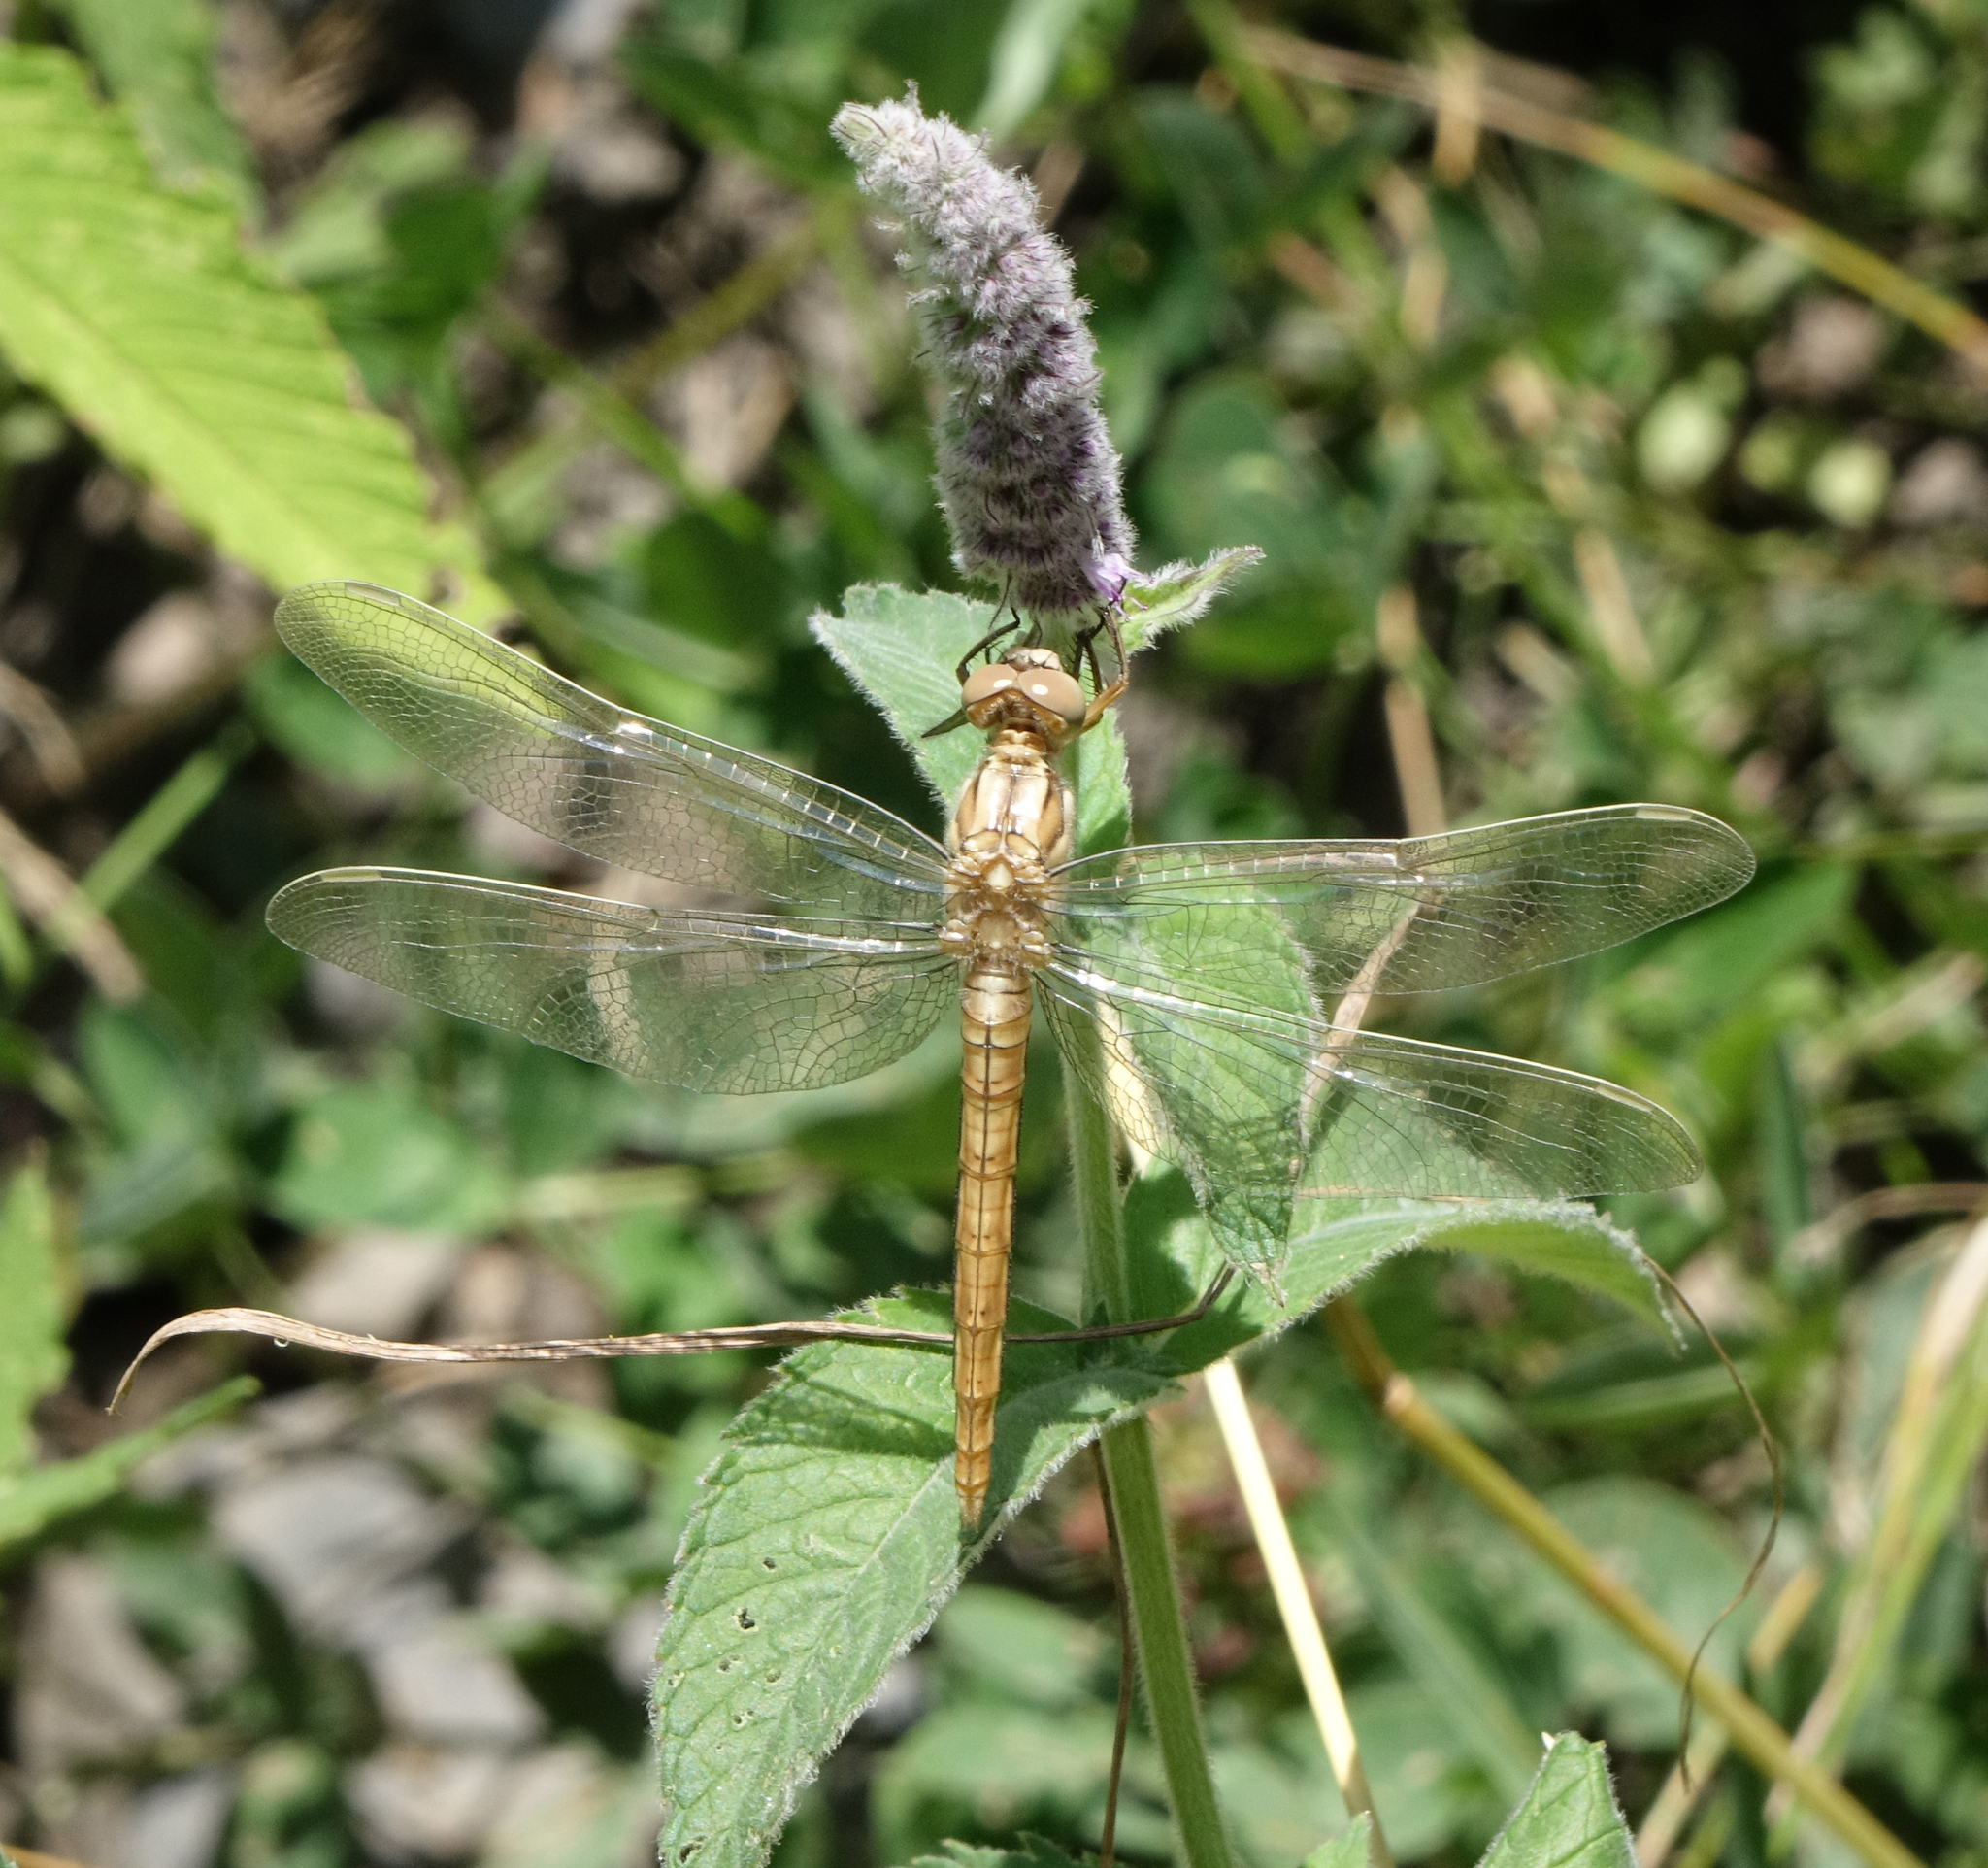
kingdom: Animalia
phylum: Arthropoda
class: Insecta
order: Odonata
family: Libellulidae
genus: Orthetrum
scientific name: Orthetrum brunneum
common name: Southern skimmer
